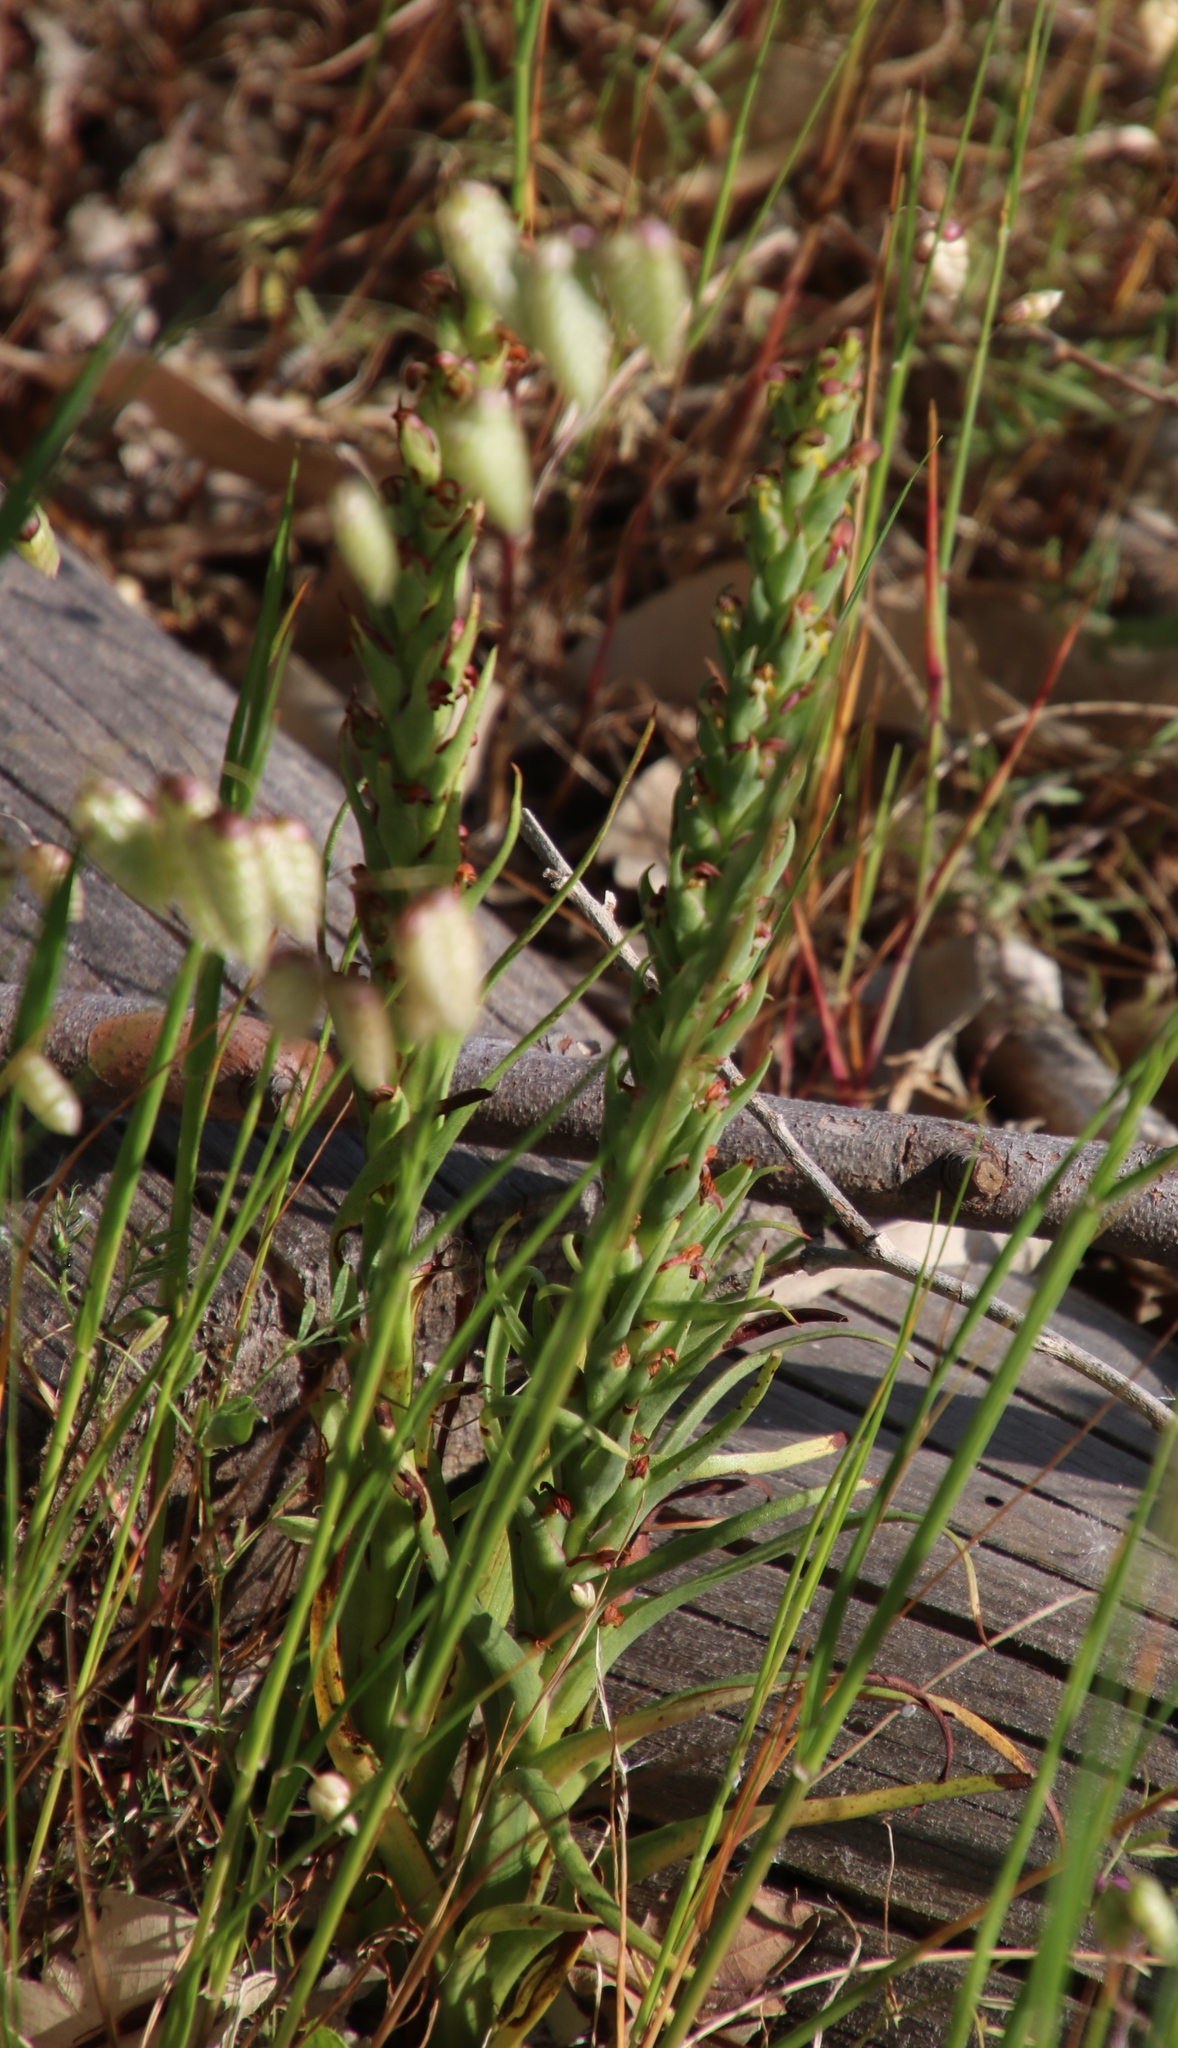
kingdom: Plantae
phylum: Tracheophyta
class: Liliopsida
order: Asparagales
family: Orchidaceae
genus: Disa
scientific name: Disa bracteata
